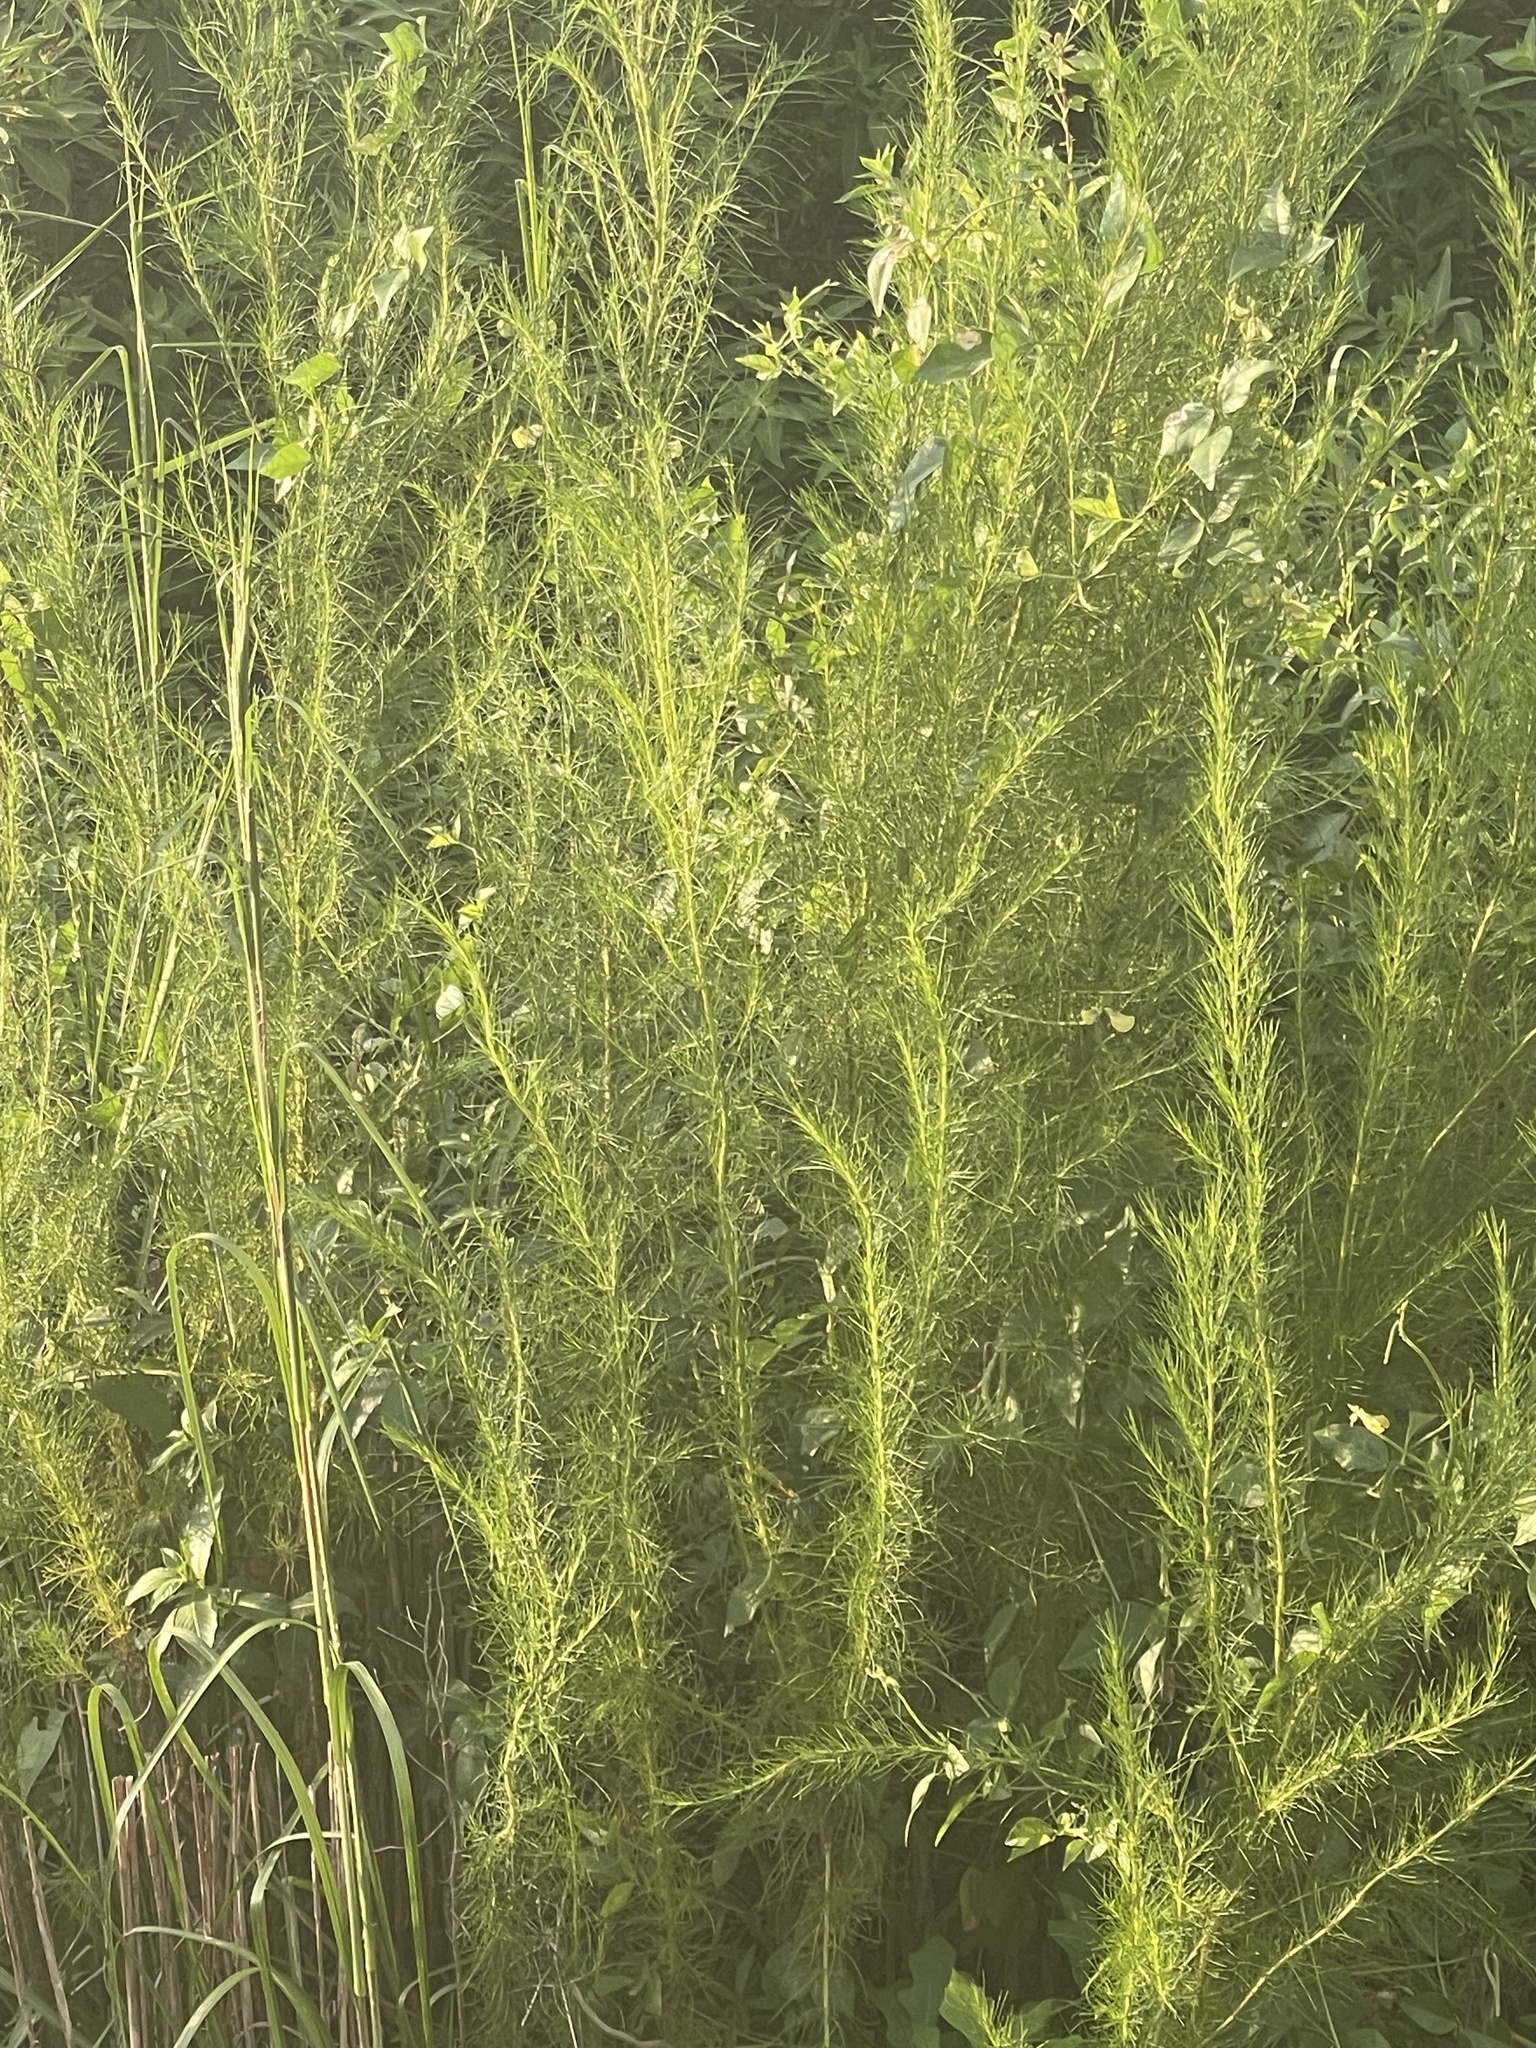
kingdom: Plantae
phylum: Tracheophyta
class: Magnoliopsida
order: Asterales
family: Asteraceae
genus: Eupatorium
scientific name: Eupatorium capillifolium
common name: Dog-fennel
